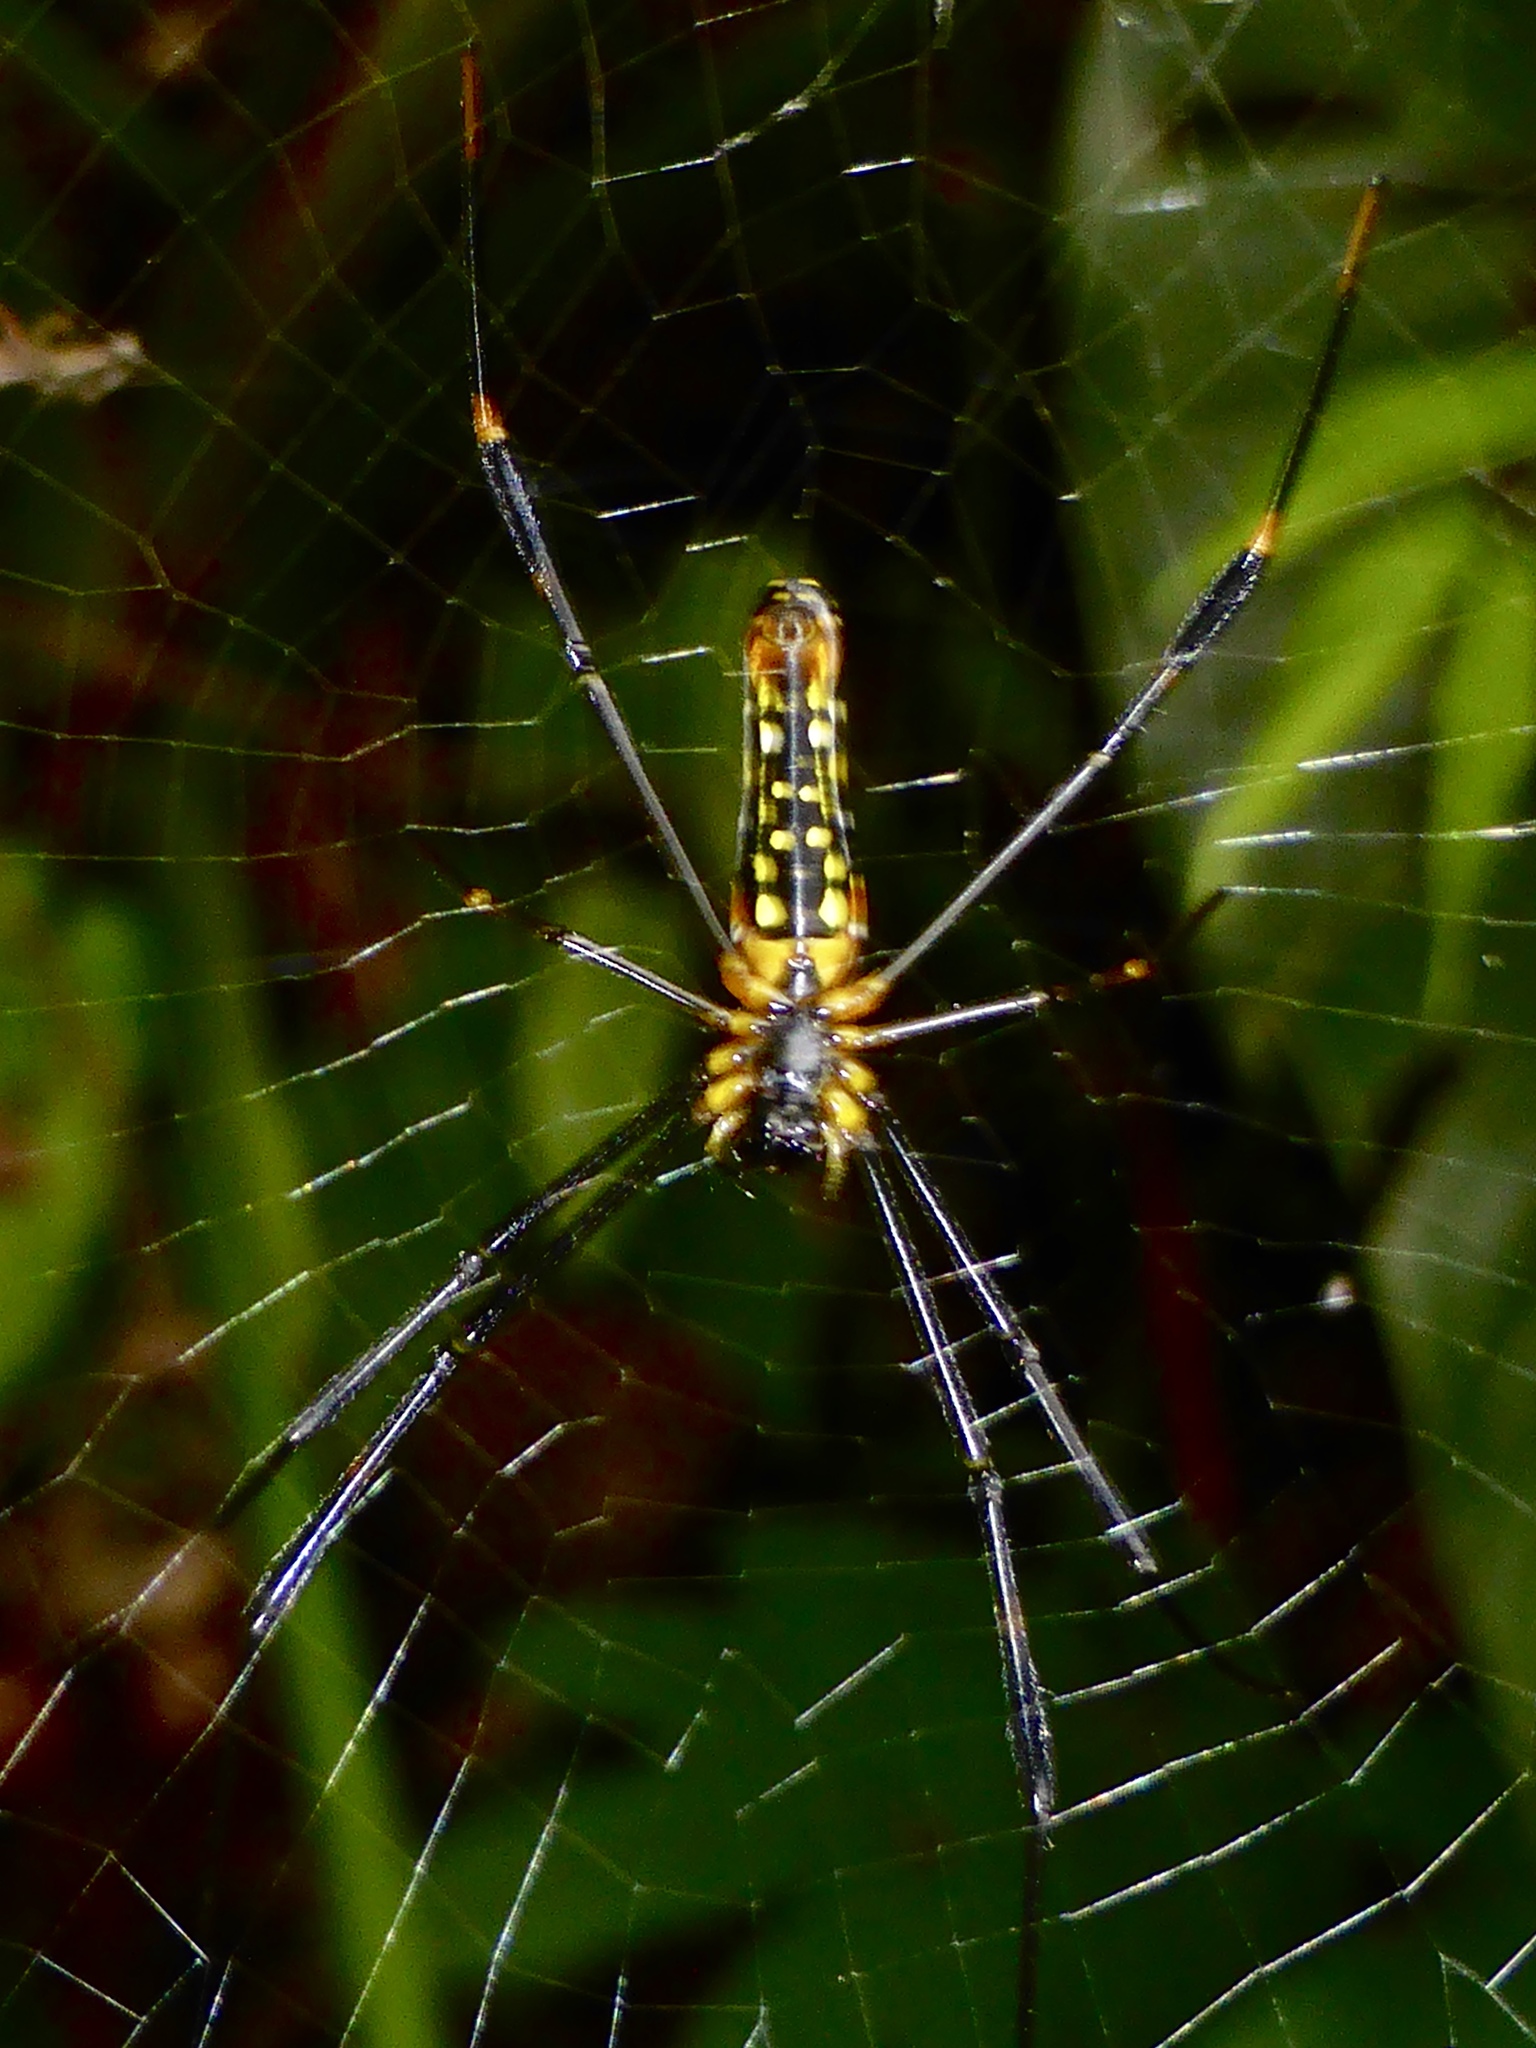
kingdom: Animalia
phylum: Arthropoda
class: Arachnida
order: Araneae
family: Araneidae
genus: Nephila
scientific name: Nephila pilipes
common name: Giant golden orb weaver
